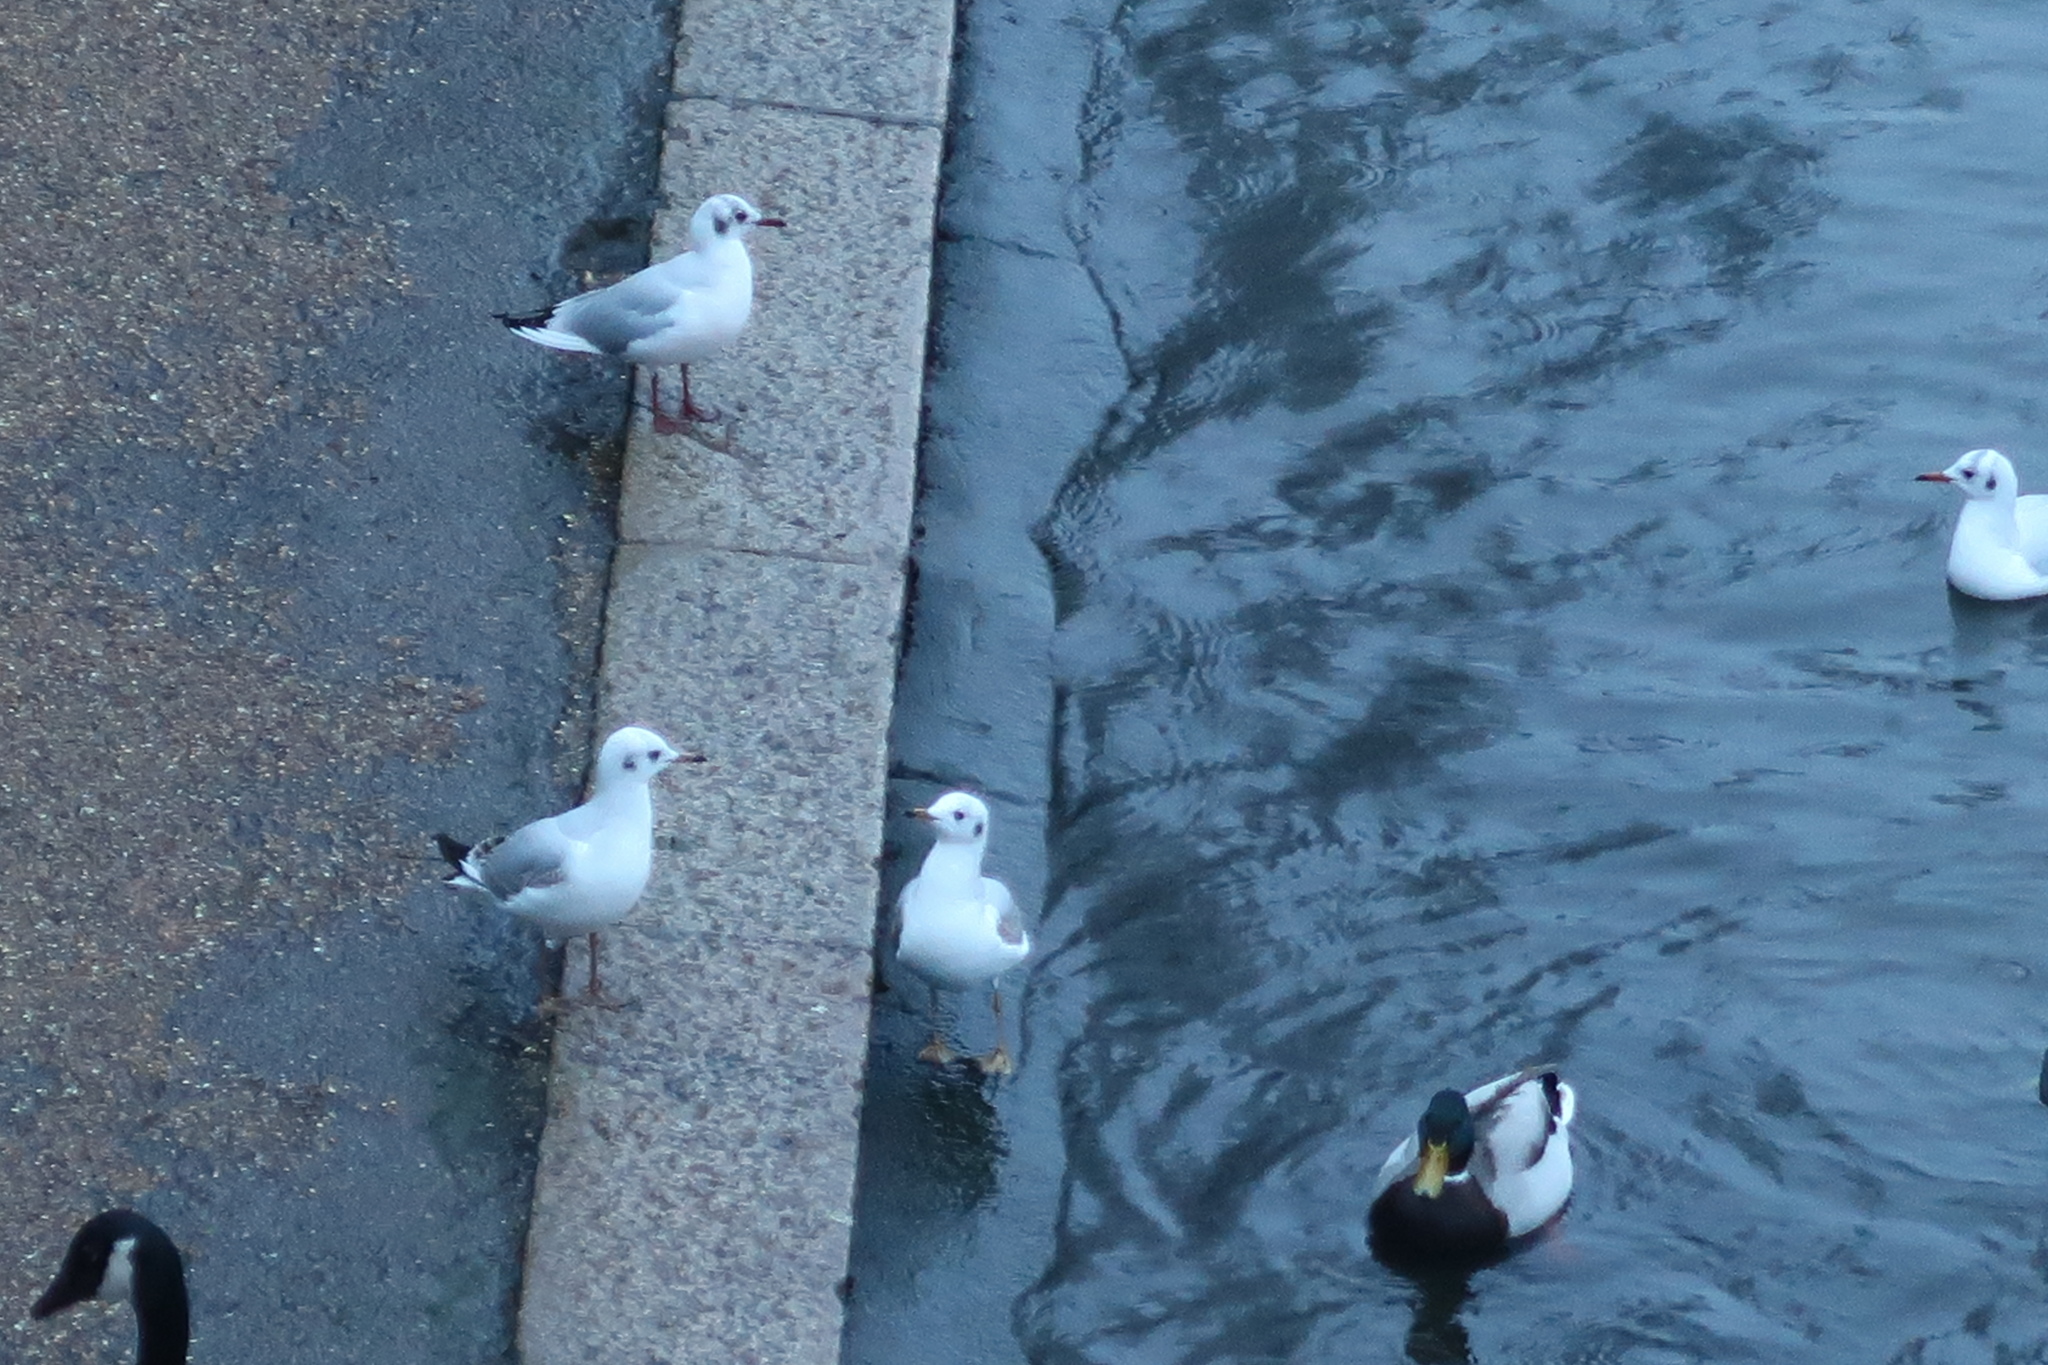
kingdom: Animalia
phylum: Chordata
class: Aves
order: Charadriiformes
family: Laridae
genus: Chroicocephalus
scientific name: Chroicocephalus ridibundus
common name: Black-headed gull
